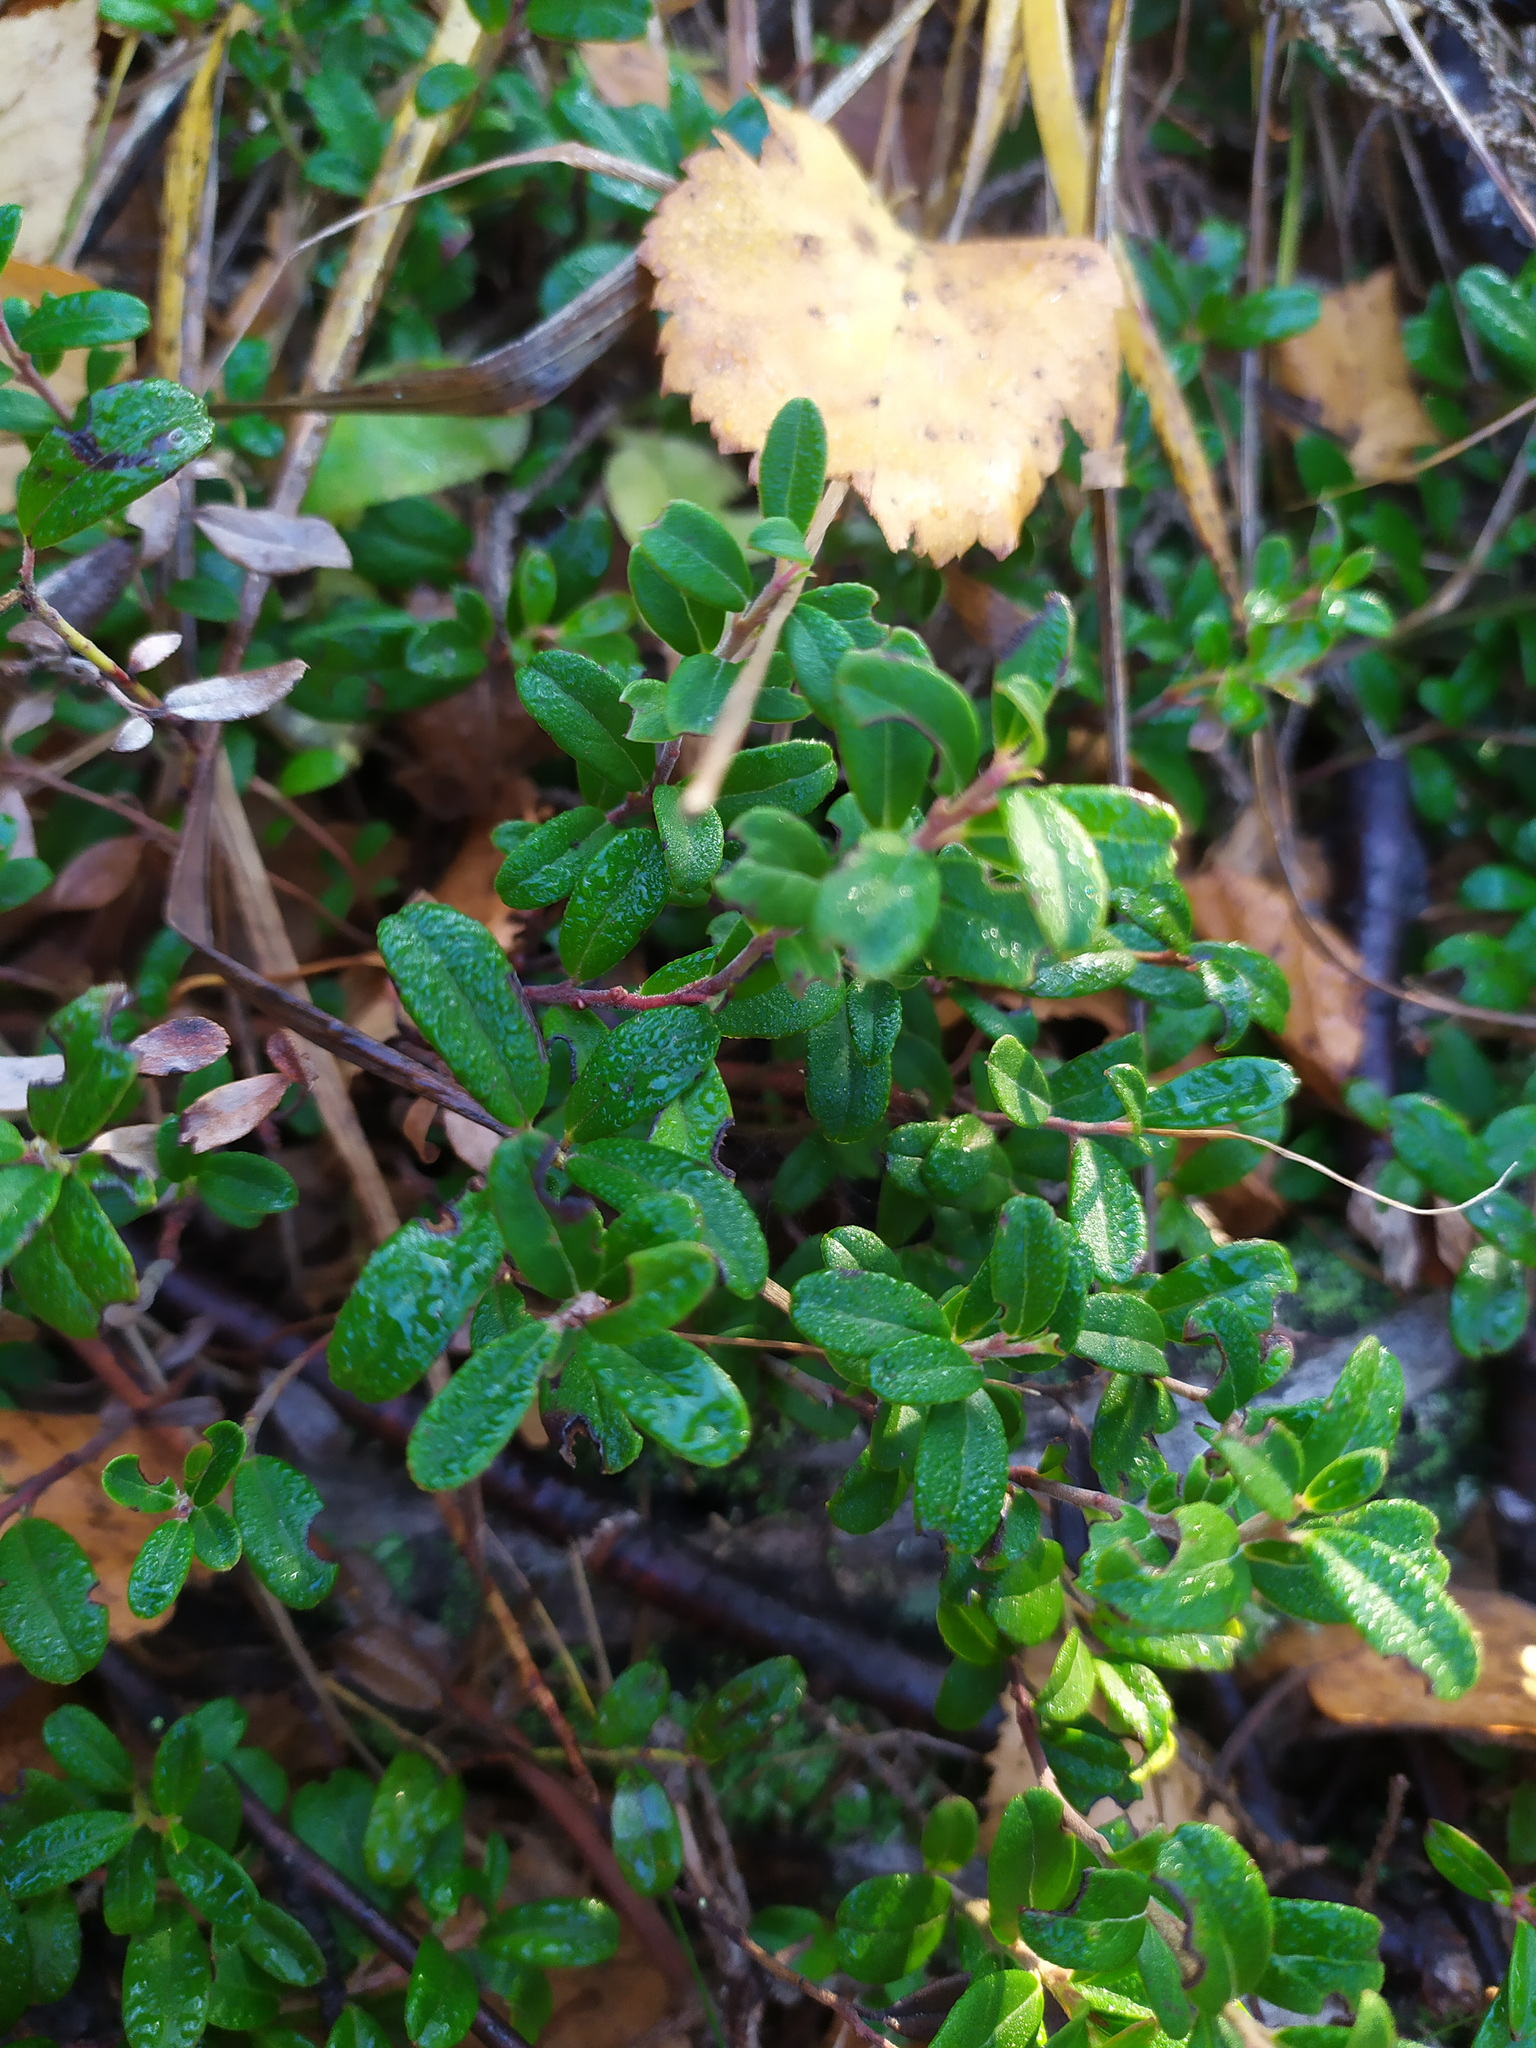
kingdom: Plantae
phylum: Tracheophyta
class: Magnoliopsida
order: Ericales
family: Ericaceae
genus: Vaccinium
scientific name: Vaccinium vitis-idaea
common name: Cowberry
